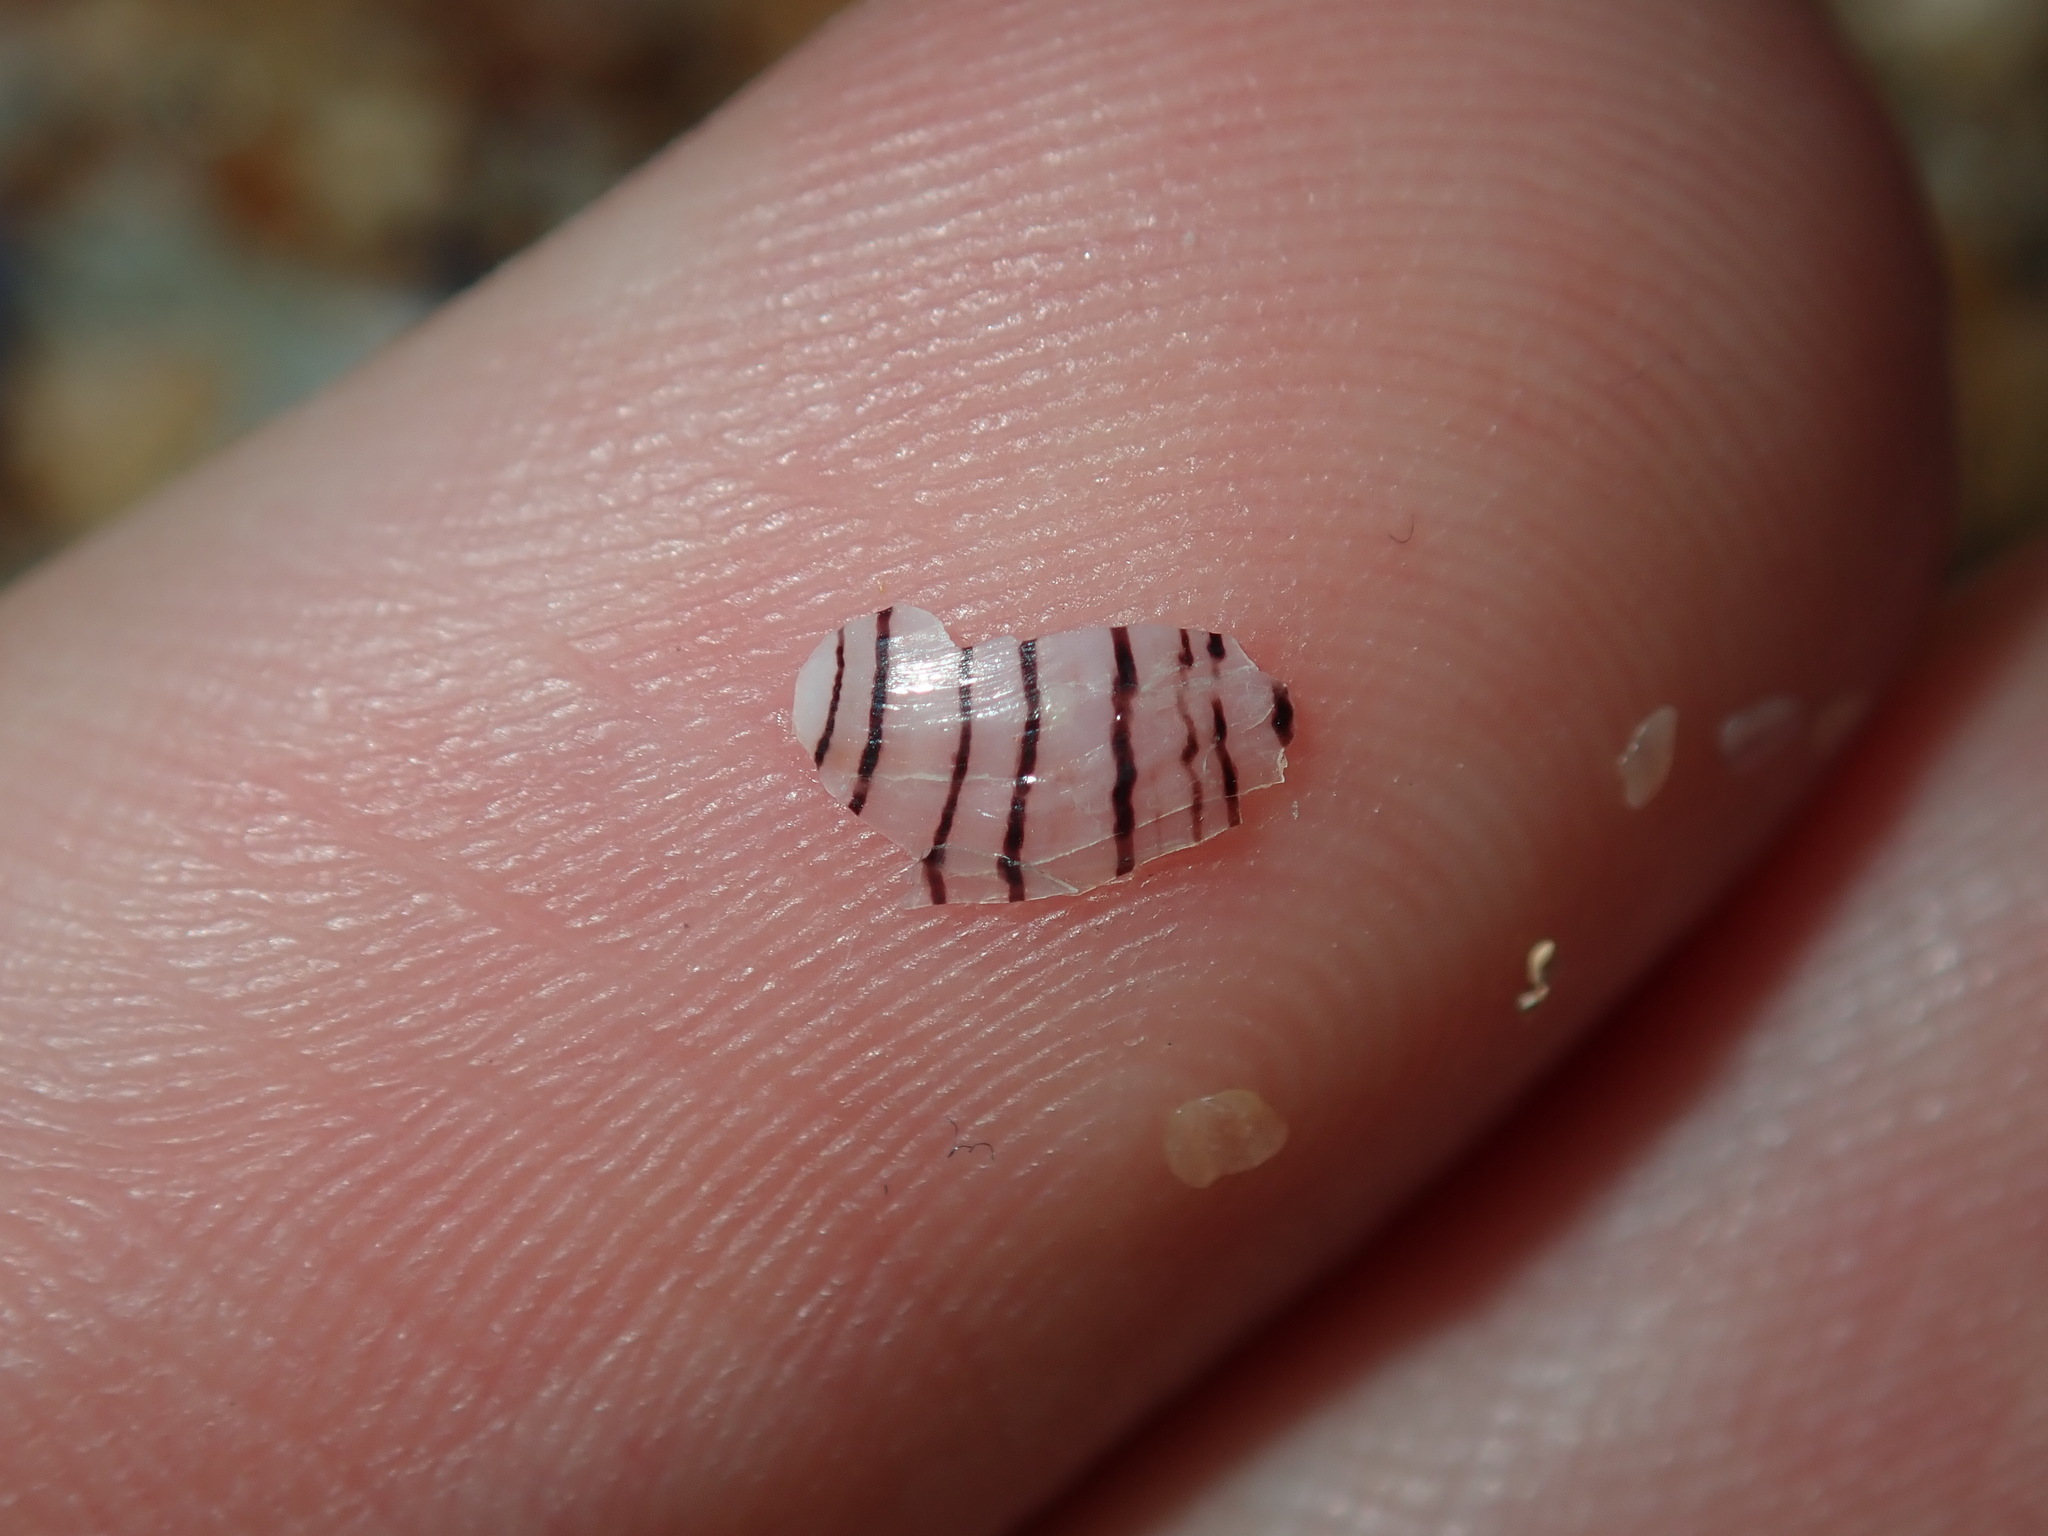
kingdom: Animalia
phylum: Mollusca
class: Gastropoda
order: Cephalaspidea
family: Aplustridae
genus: Hydatina
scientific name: Hydatina physis
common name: Brown-line paperbubble
